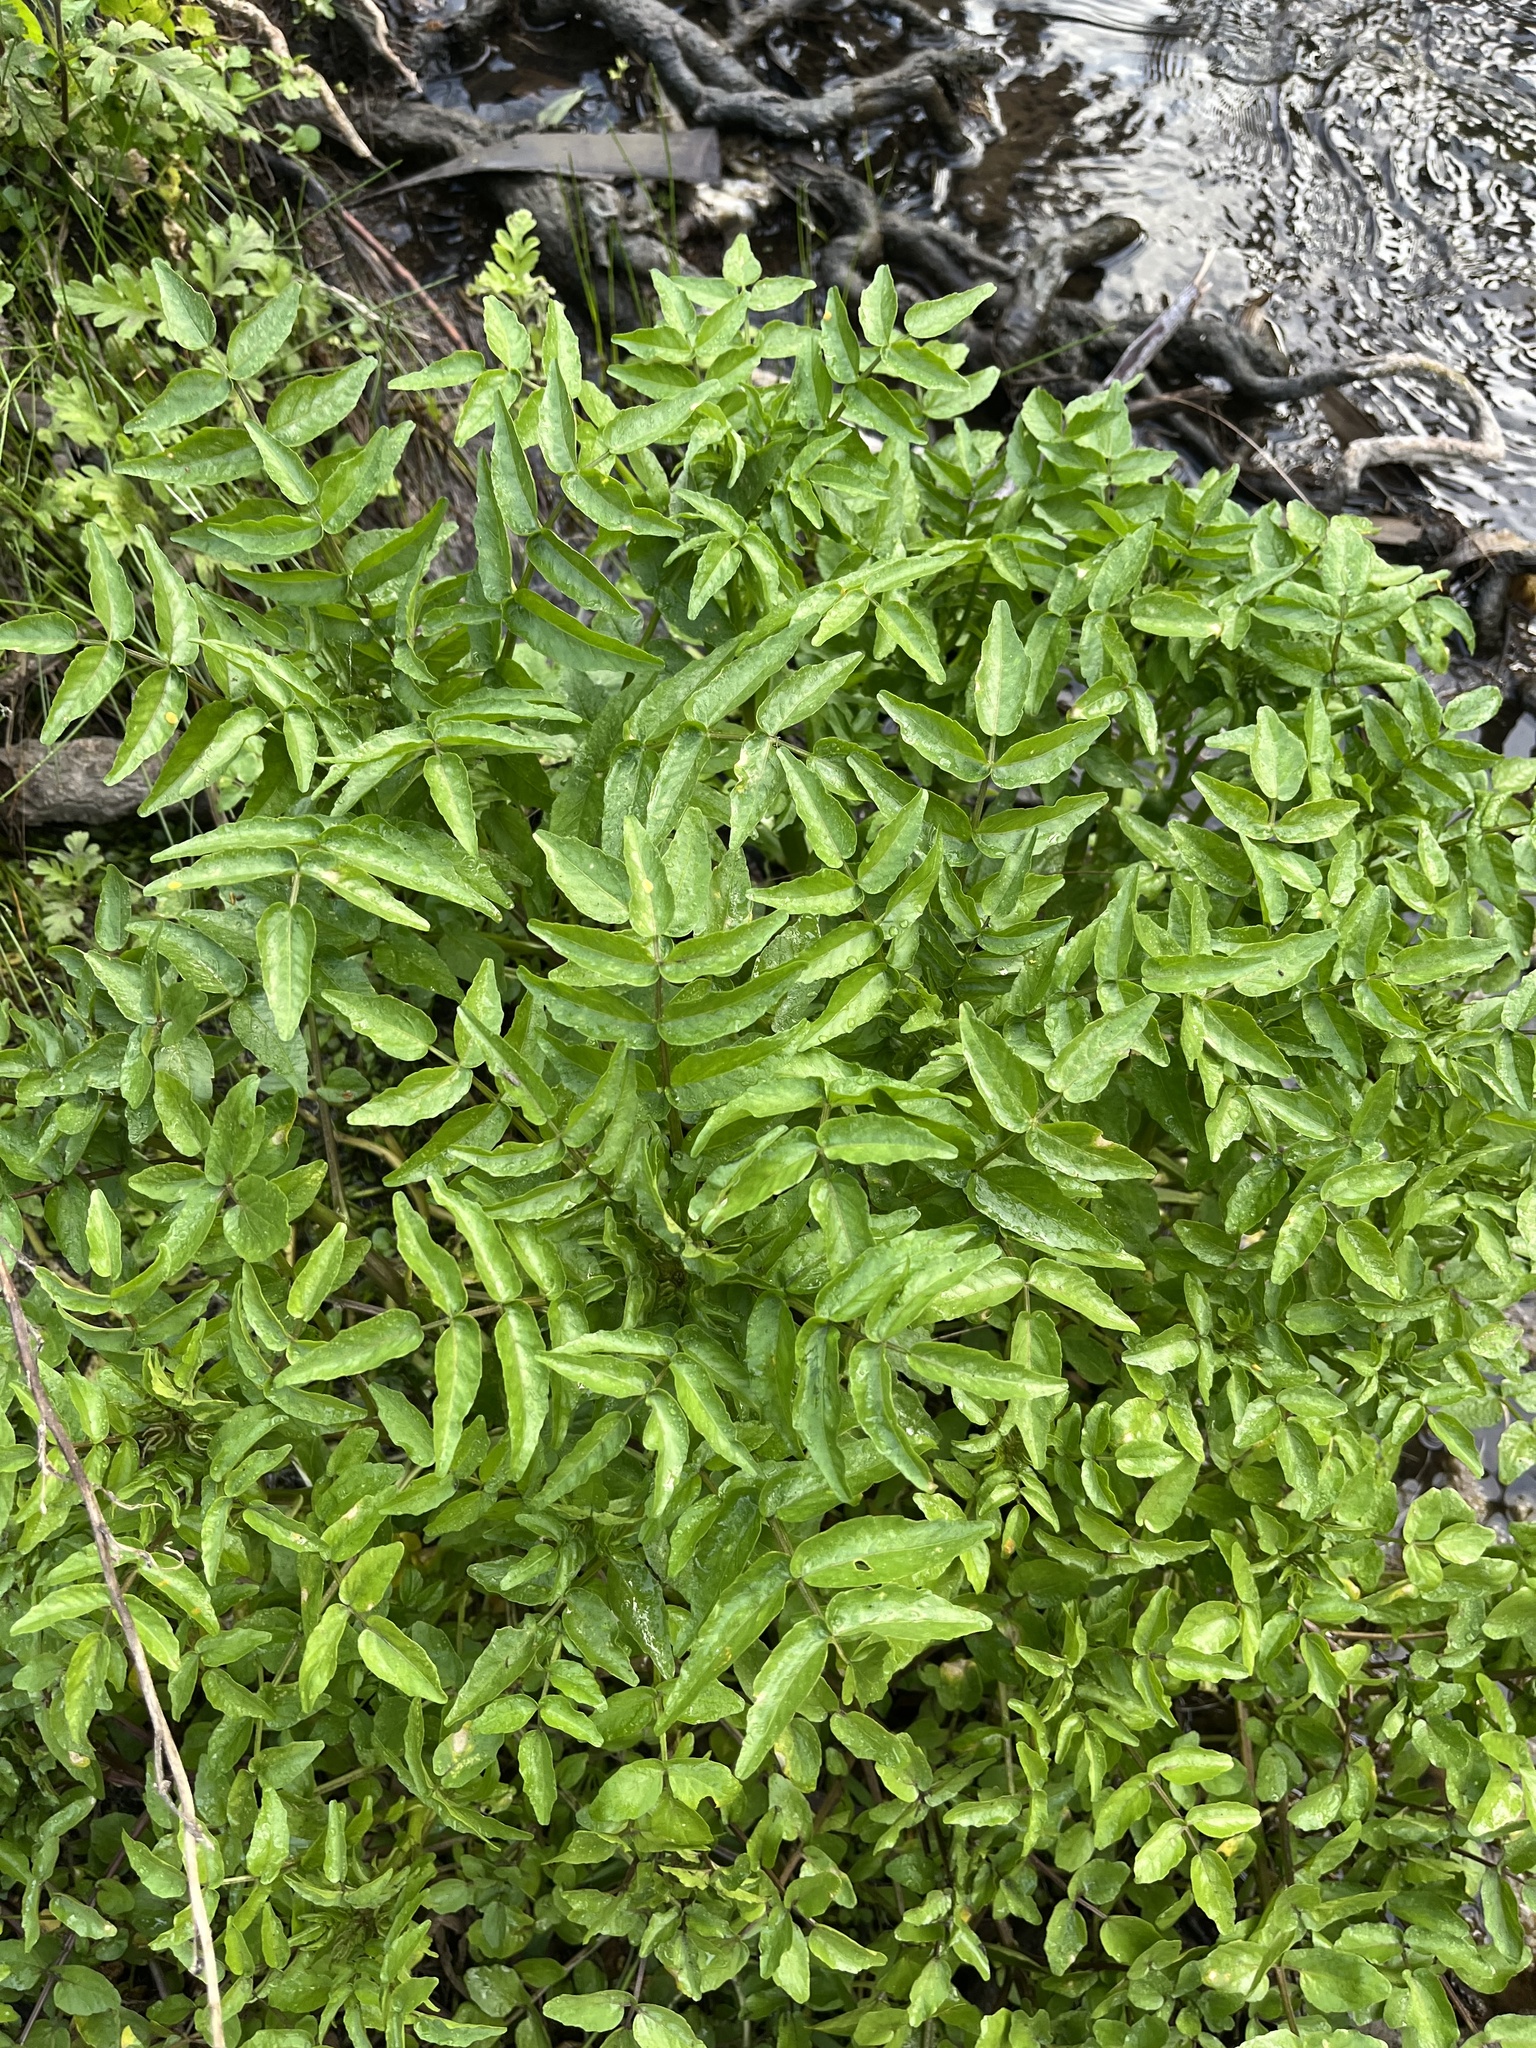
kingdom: Plantae
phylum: Tracheophyta
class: Magnoliopsida
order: Brassicales
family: Brassicaceae
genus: Nasturtium
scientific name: Nasturtium officinale
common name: Watercress
